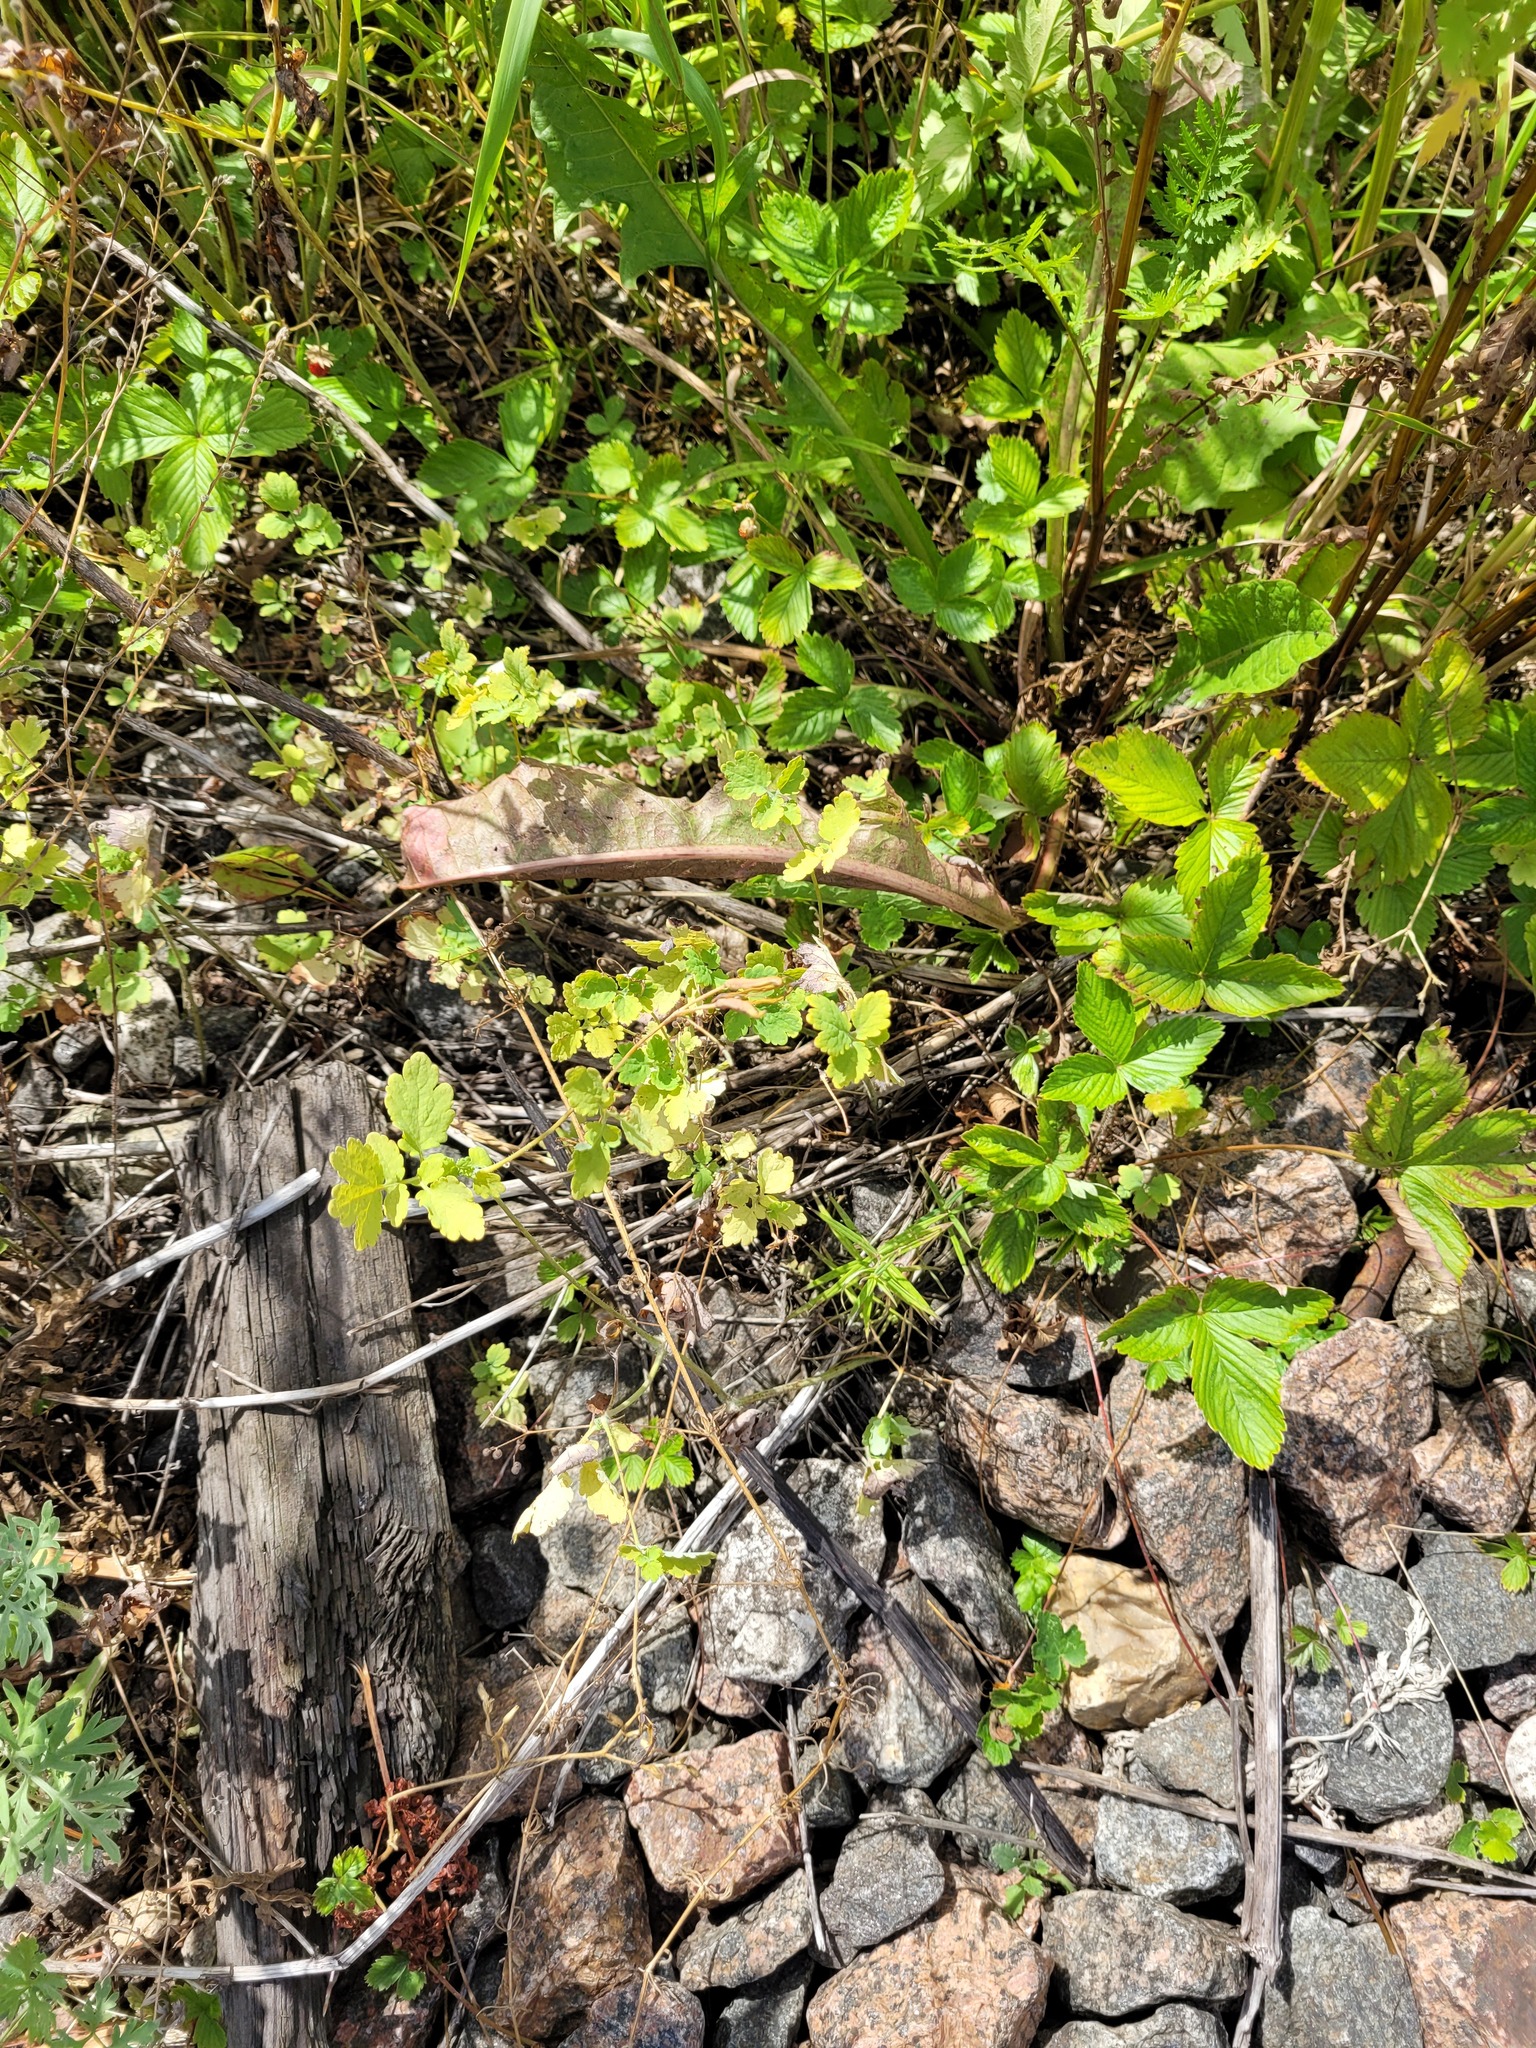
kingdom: Plantae
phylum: Tracheophyta
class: Magnoliopsida
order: Ranunculales
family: Papaveraceae
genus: Chelidonium
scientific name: Chelidonium majus
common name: Greater celandine
